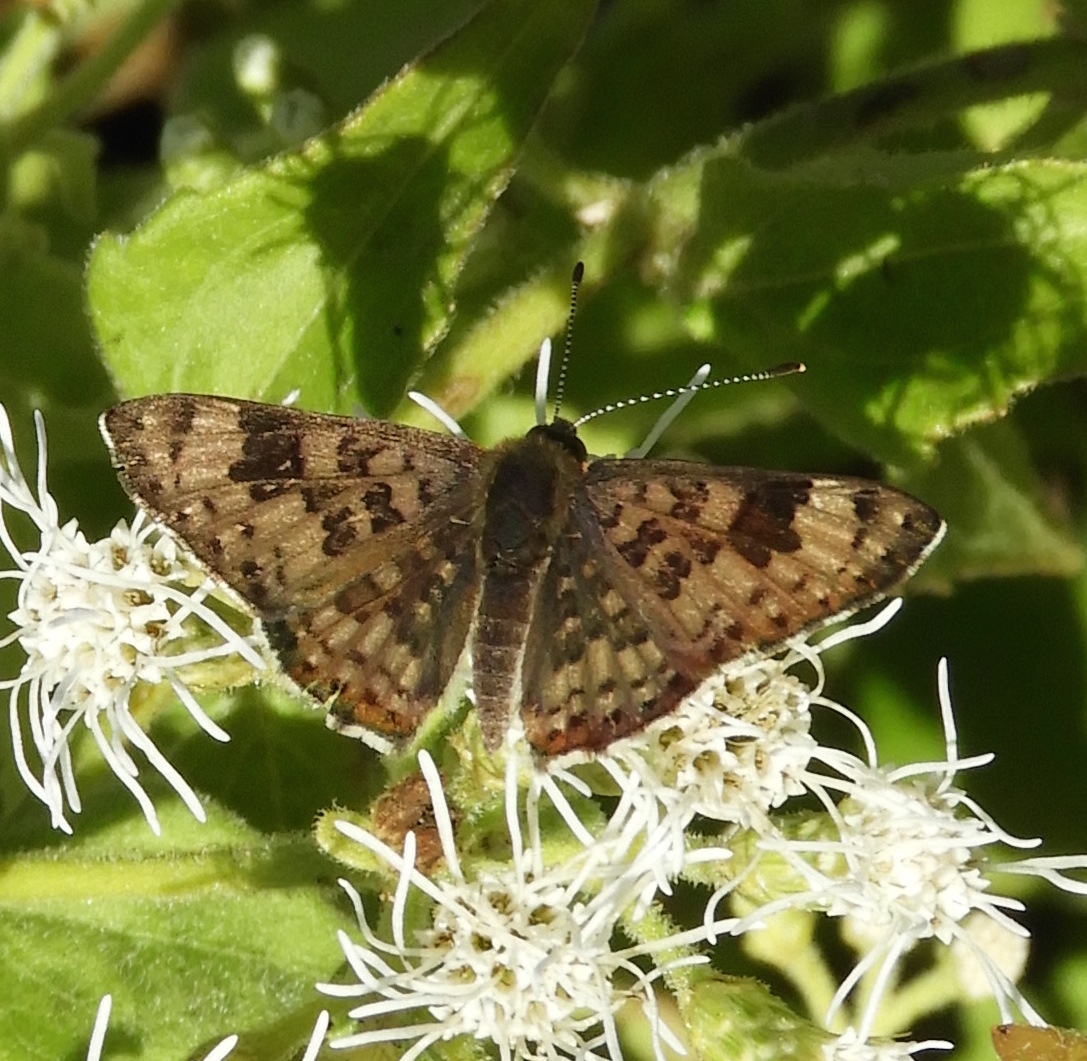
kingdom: Animalia
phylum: Arthropoda
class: Insecta
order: Lepidoptera
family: Riodinidae
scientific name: Riodinidae
